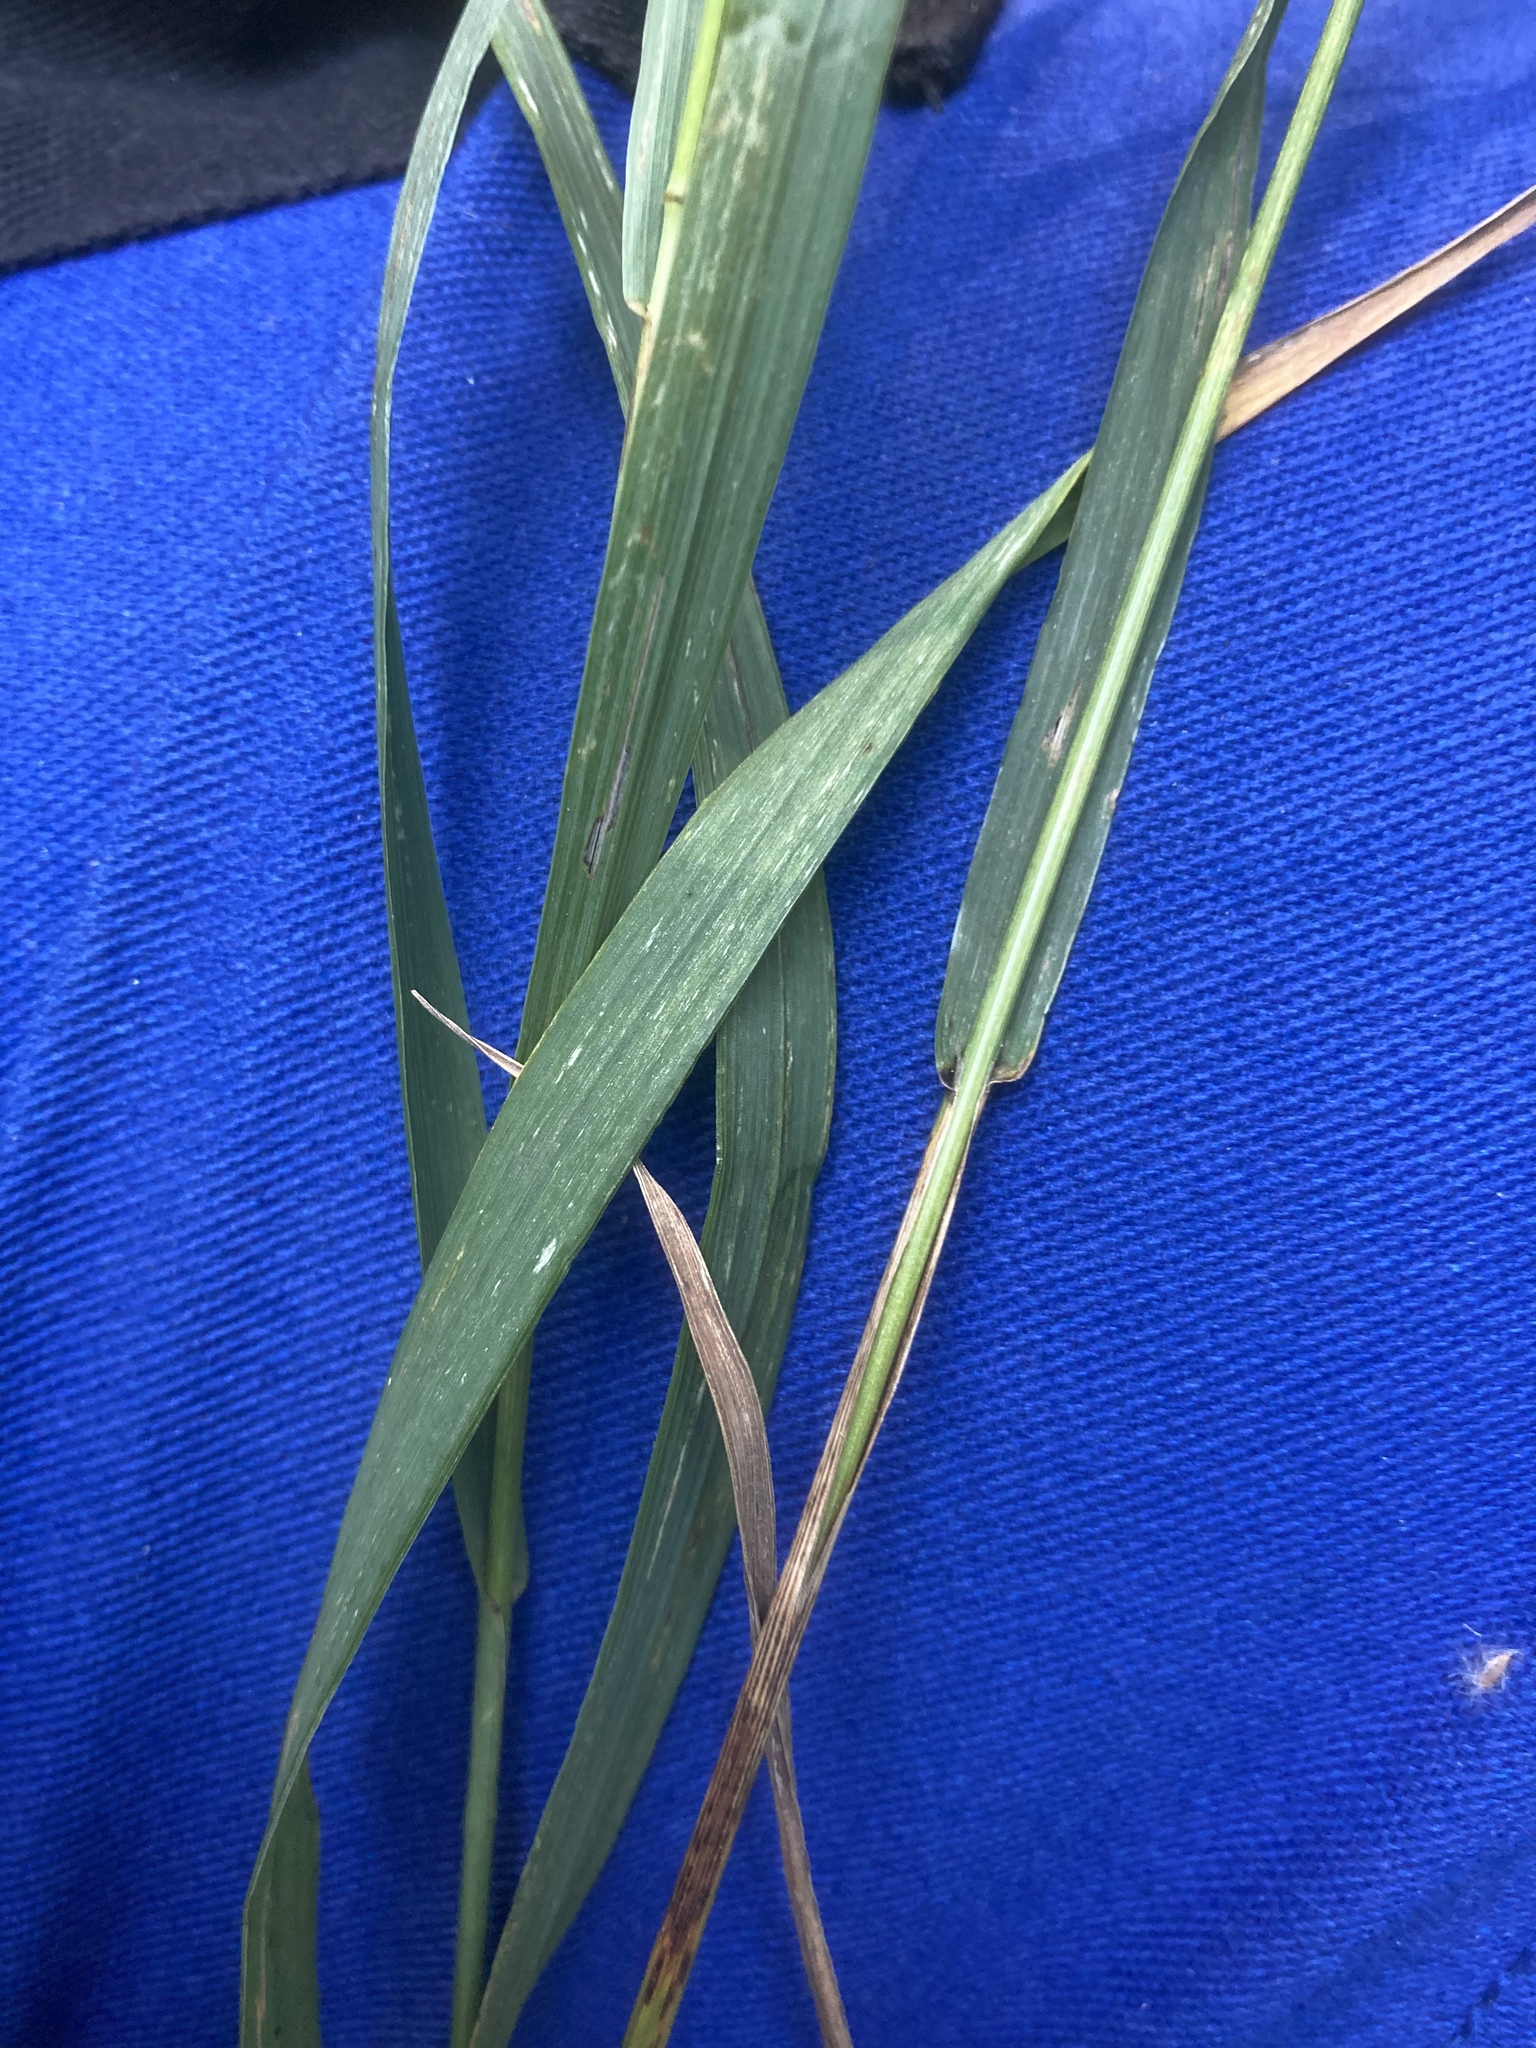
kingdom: Plantae
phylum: Tracheophyta
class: Liliopsida
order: Poales
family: Poaceae
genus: Bromus
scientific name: Bromus inermis
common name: Smooth brome
